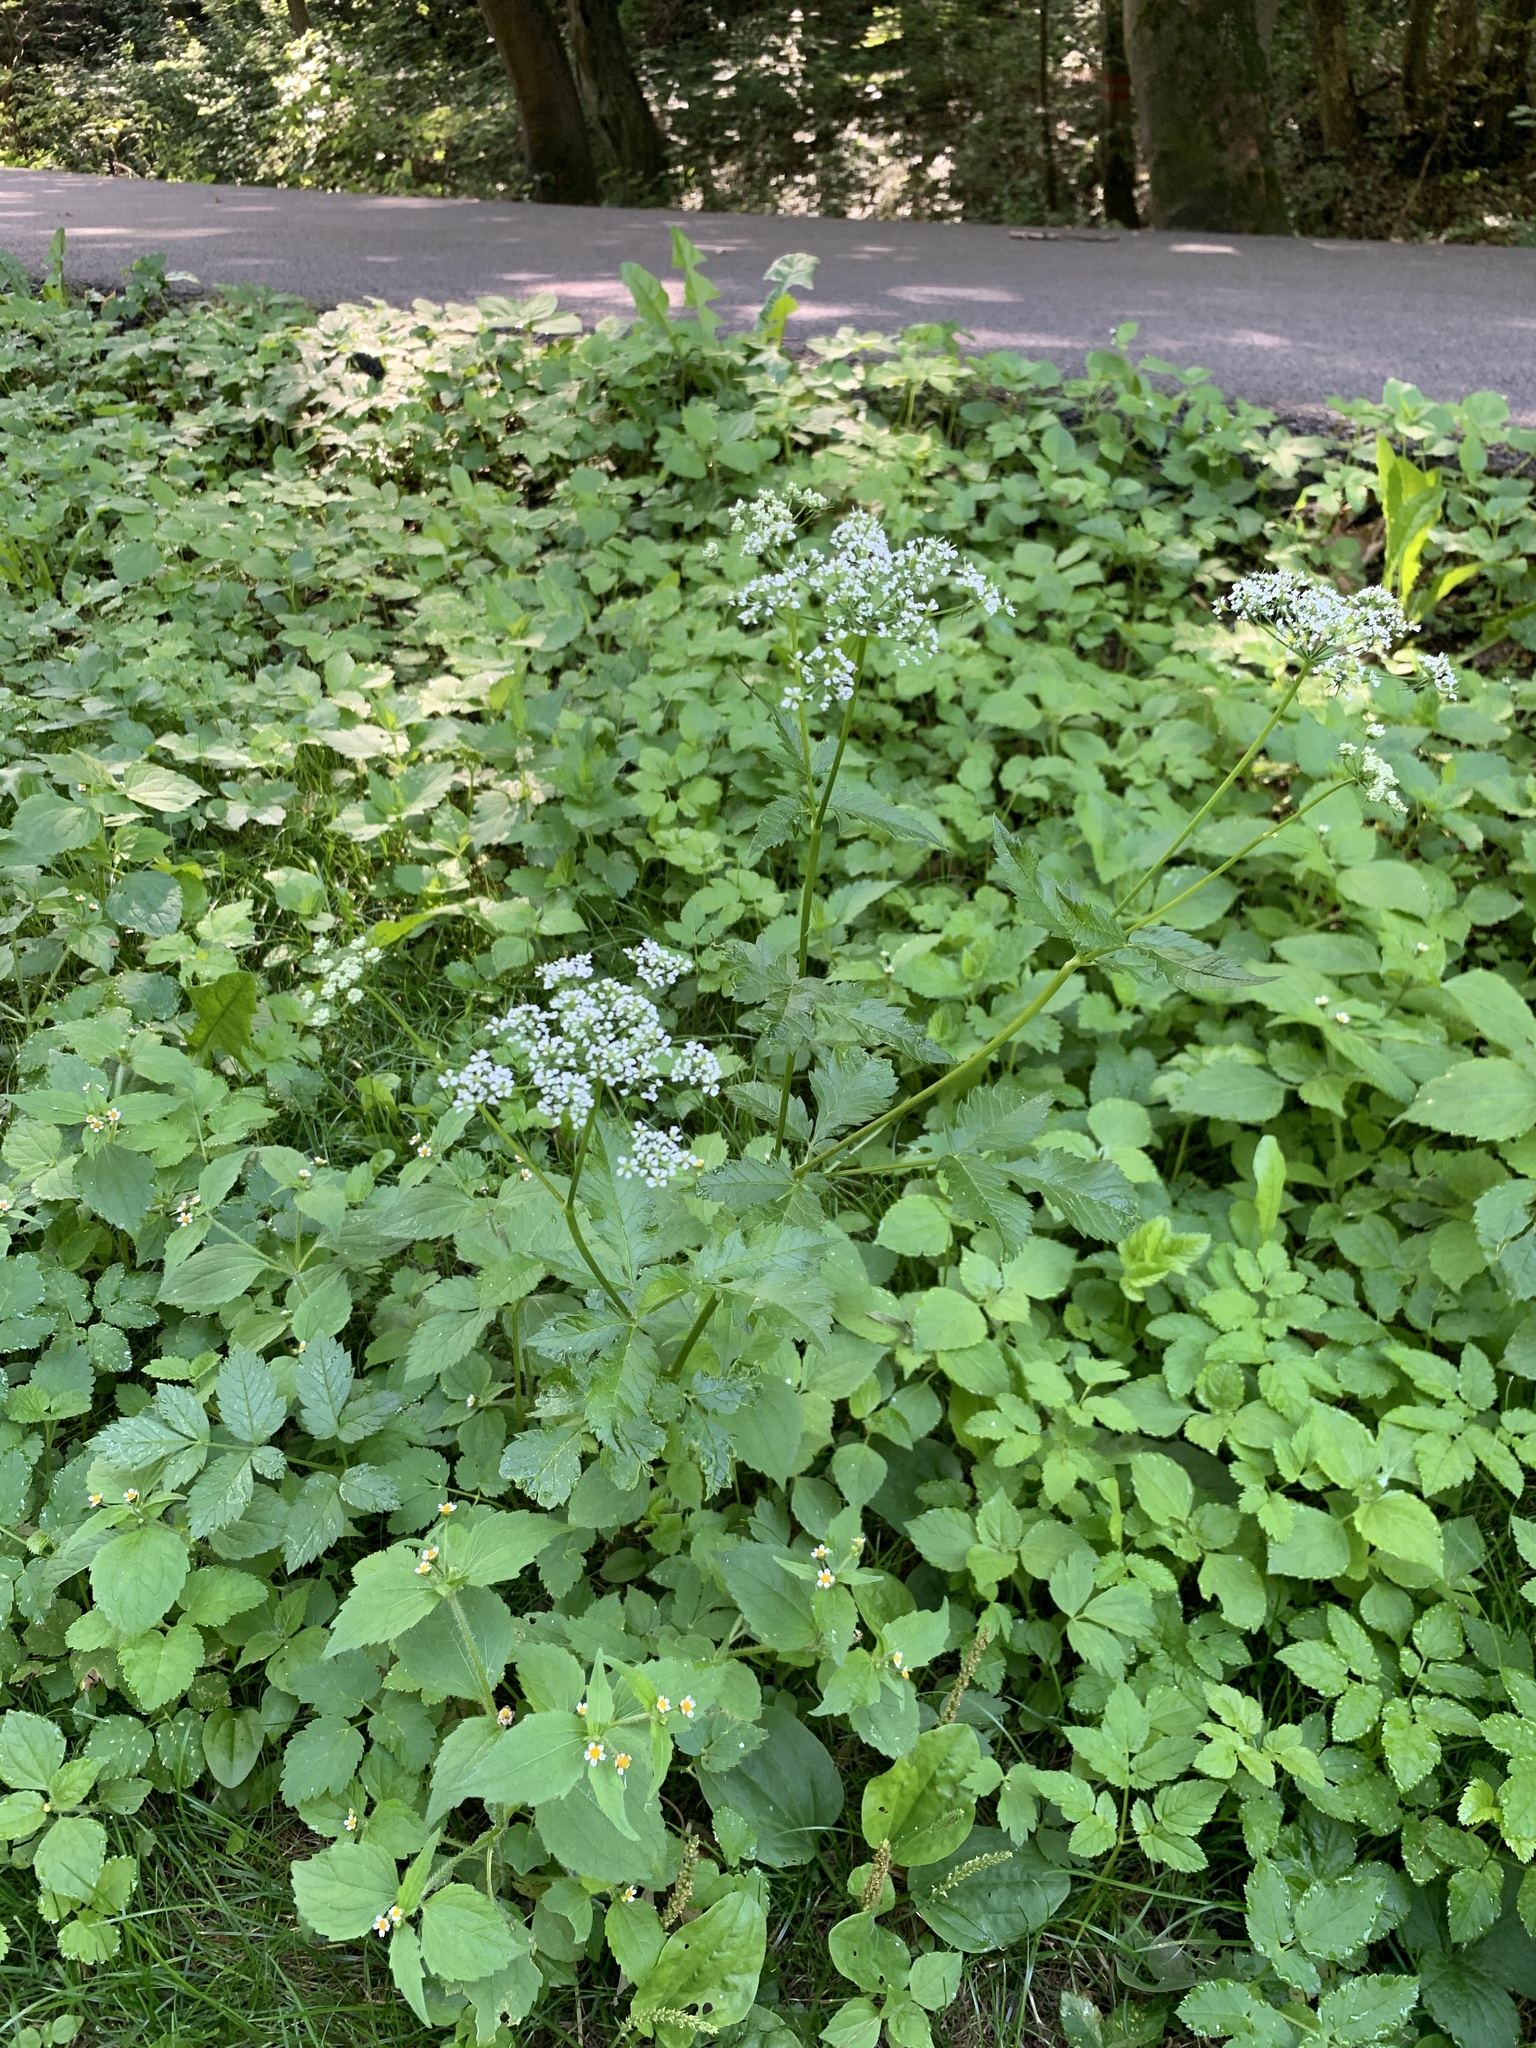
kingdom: Plantae
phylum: Tracheophyta
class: Magnoliopsida
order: Apiales
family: Apiaceae
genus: Chaerophyllum
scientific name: Chaerophyllum aromaticum
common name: Broadleaf chervil
